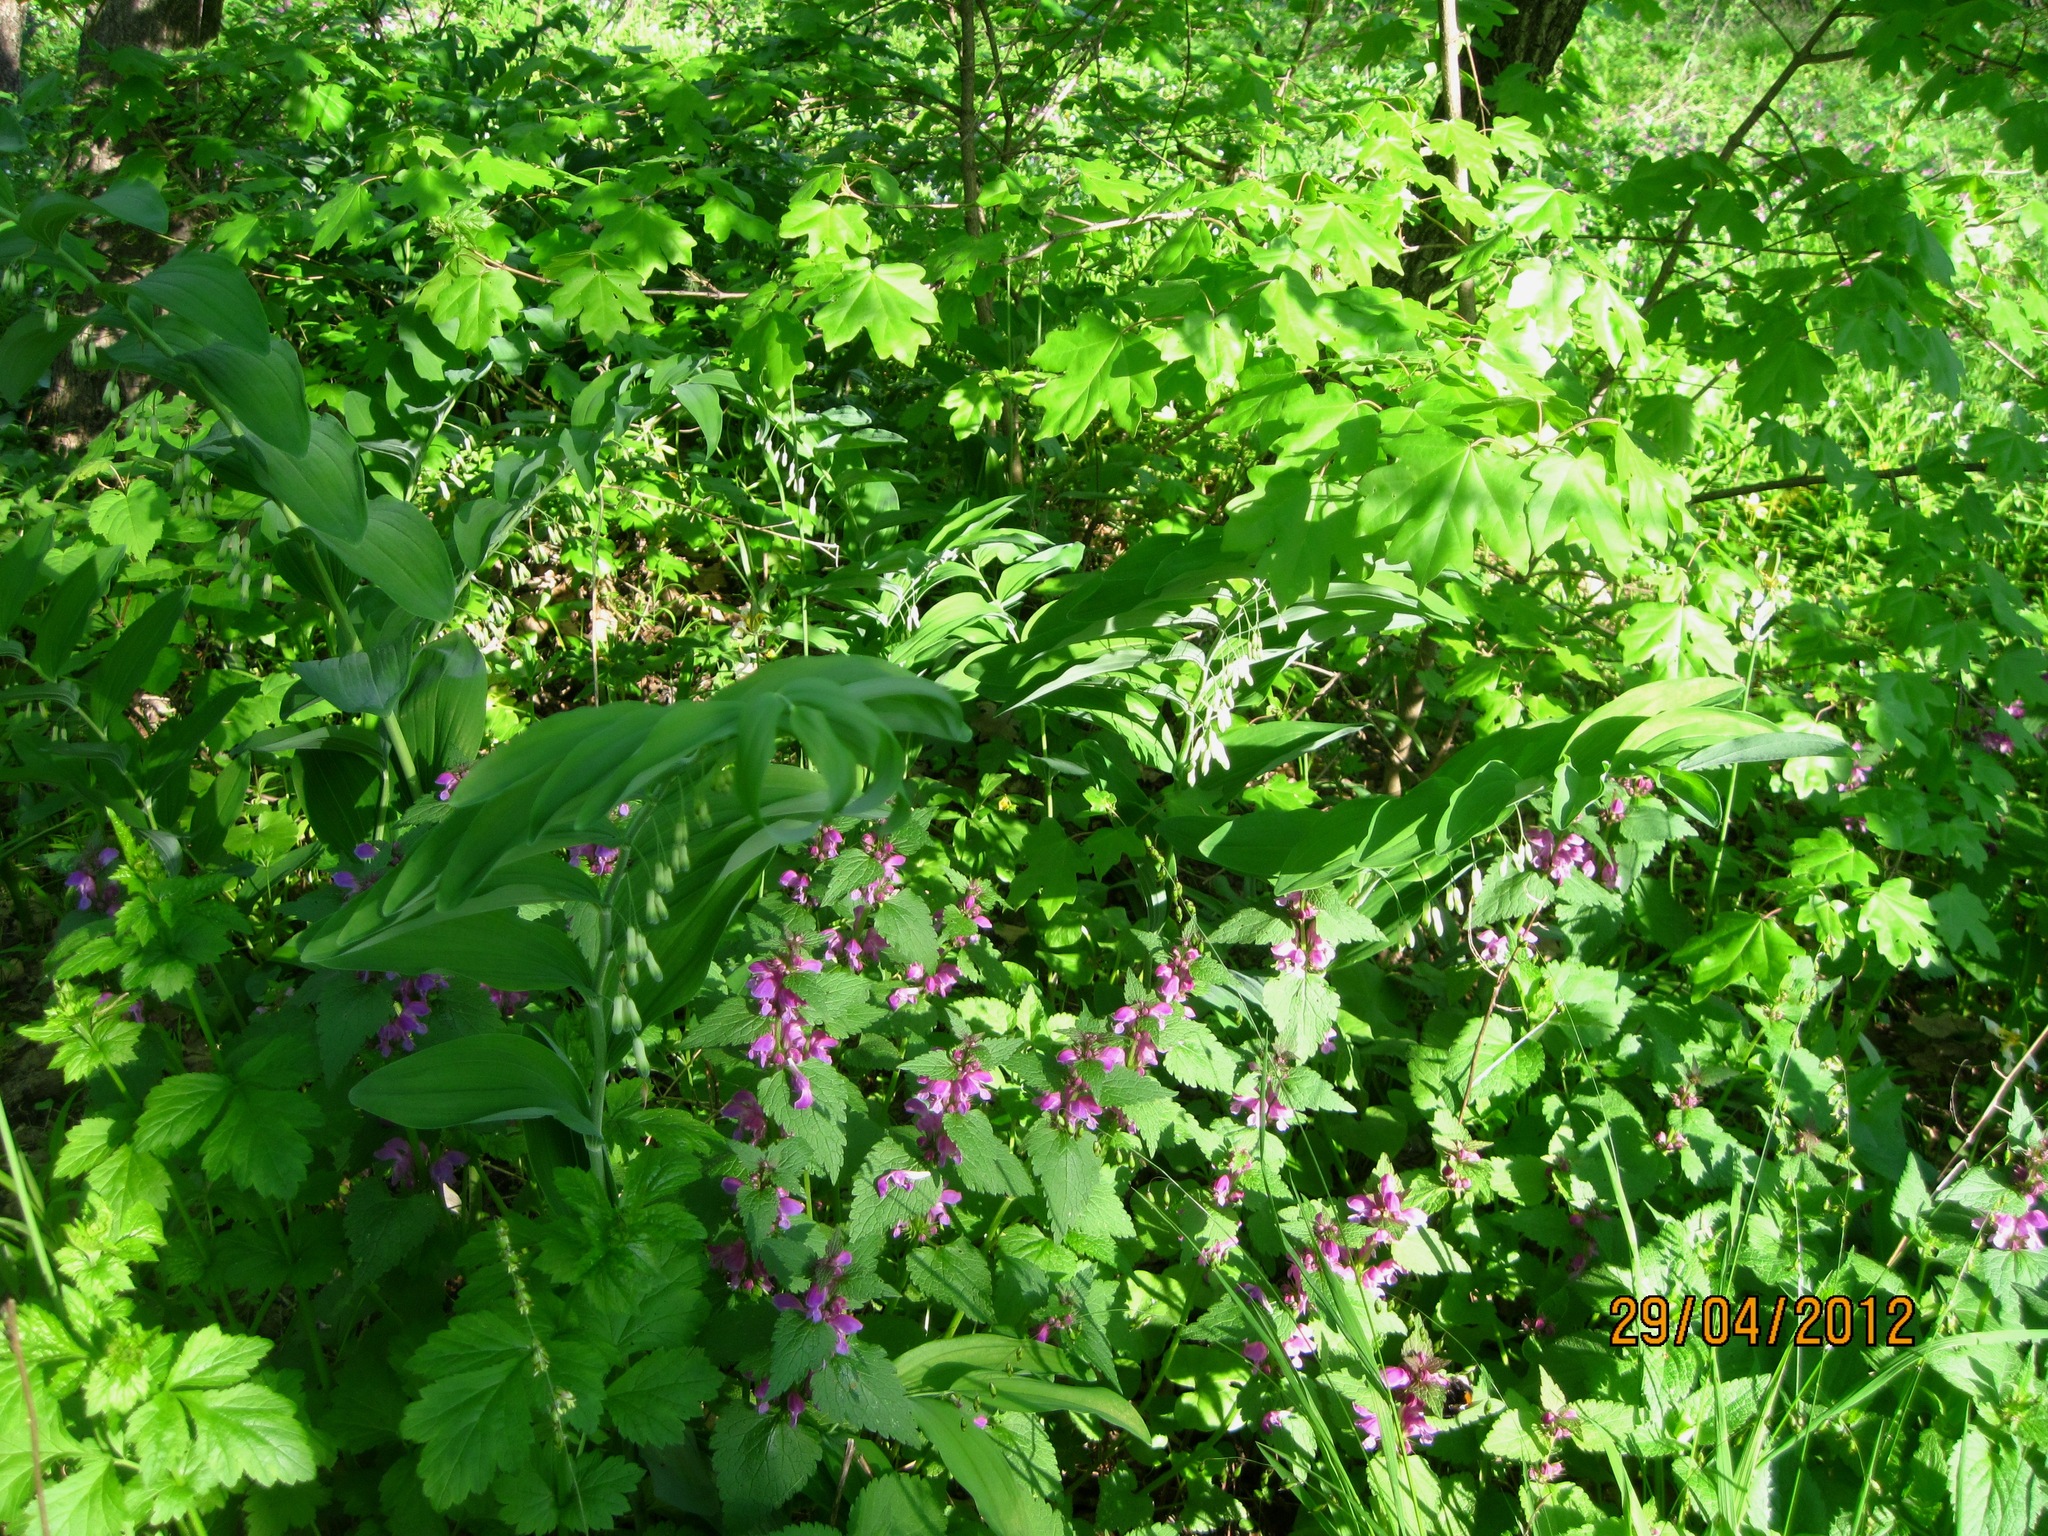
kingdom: Plantae
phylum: Tracheophyta
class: Magnoliopsida
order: Lamiales
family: Lamiaceae
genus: Lamium
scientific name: Lamium maculatum
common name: Spotted dead-nettle
